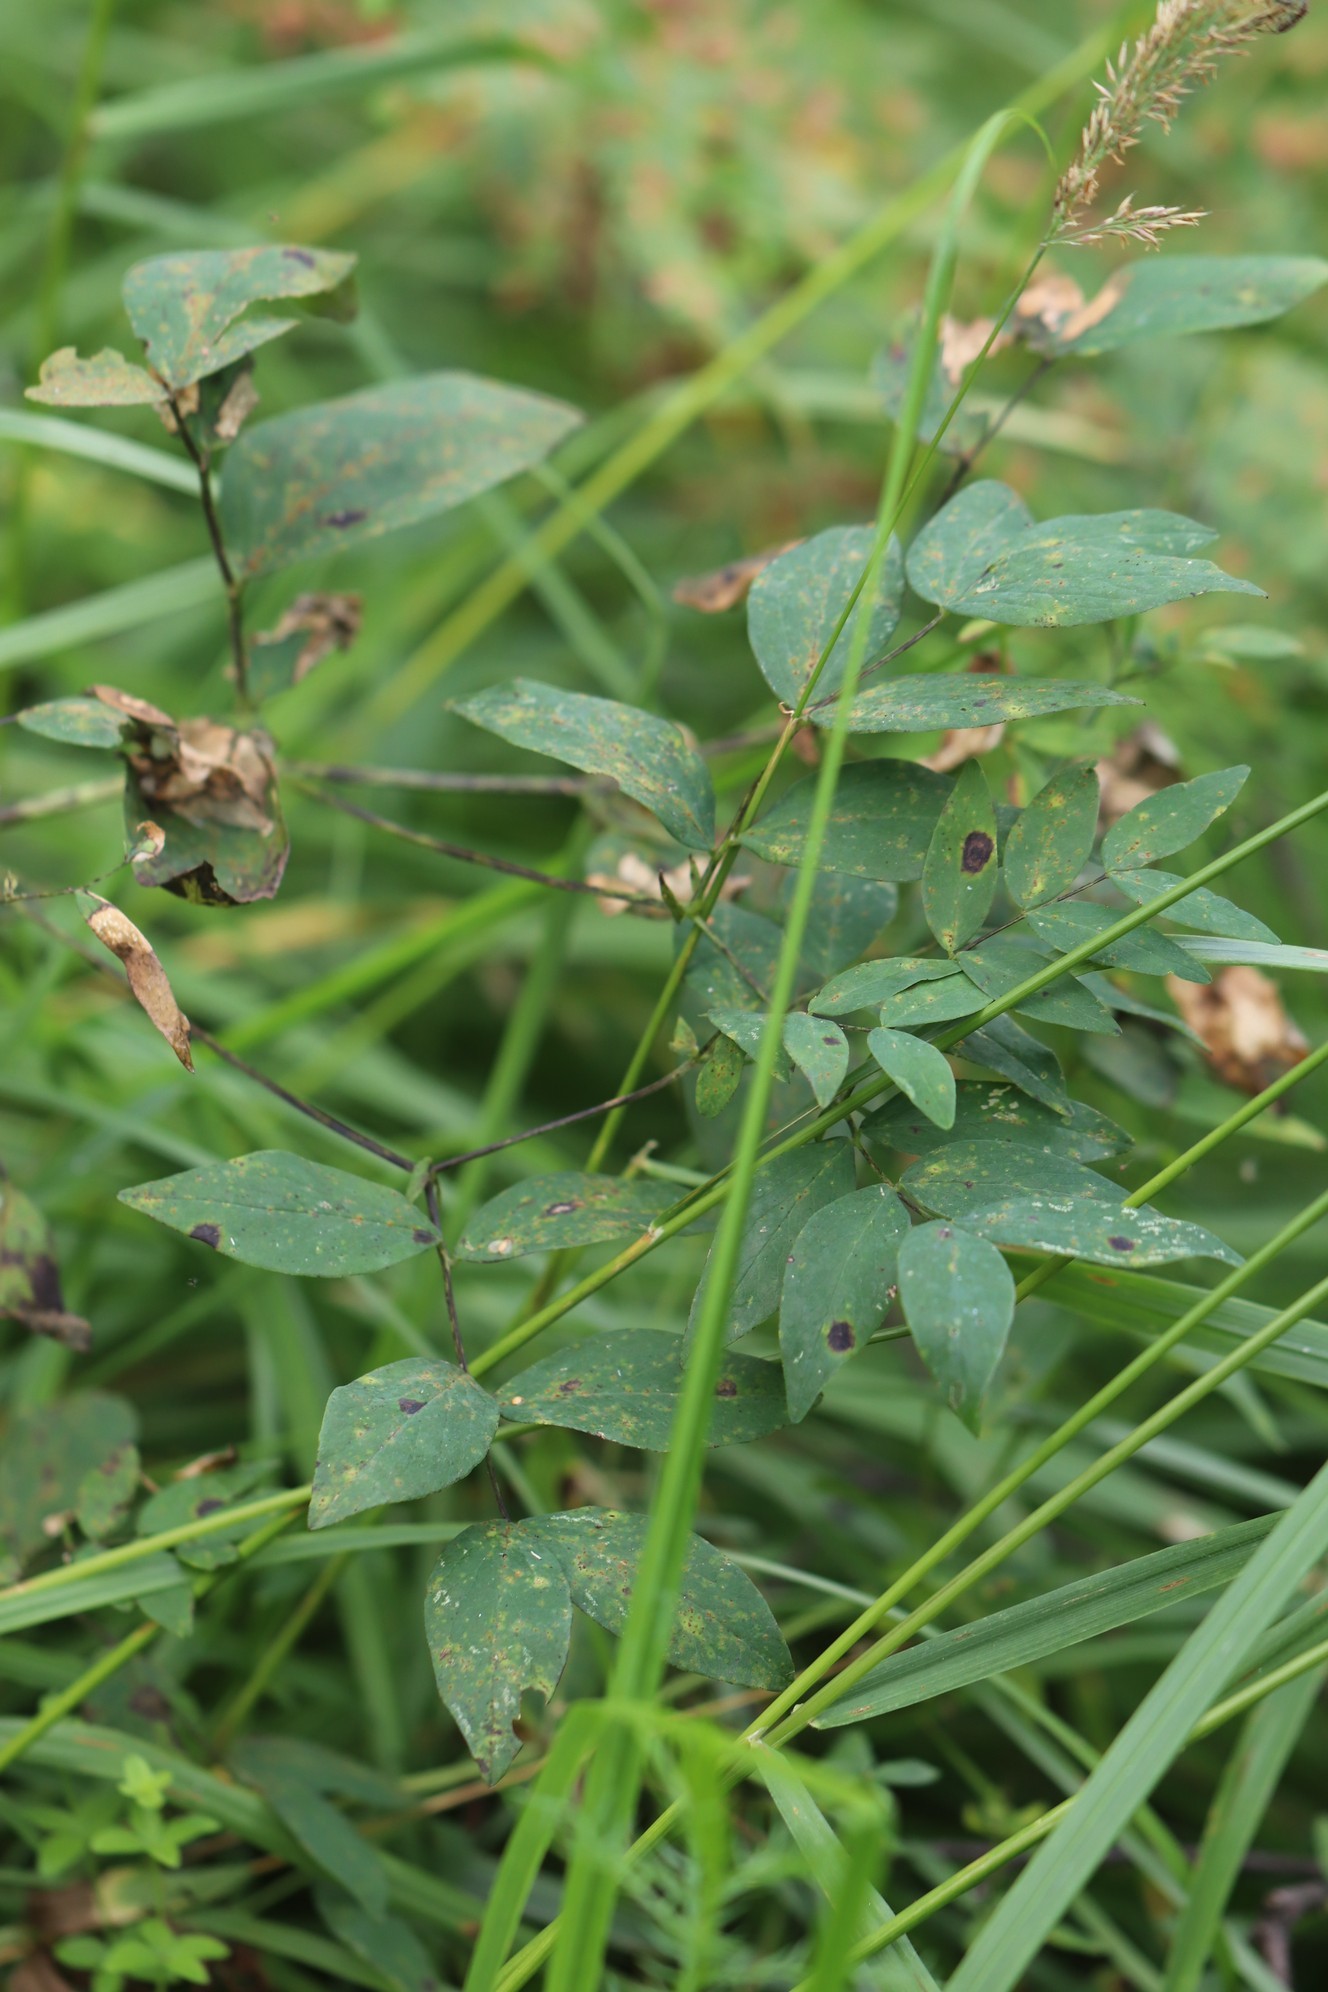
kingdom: Plantae
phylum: Tracheophyta
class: Magnoliopsida
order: Fabales
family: Fabaceae
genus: Lathyrus
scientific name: Lathyrus gmelinii
